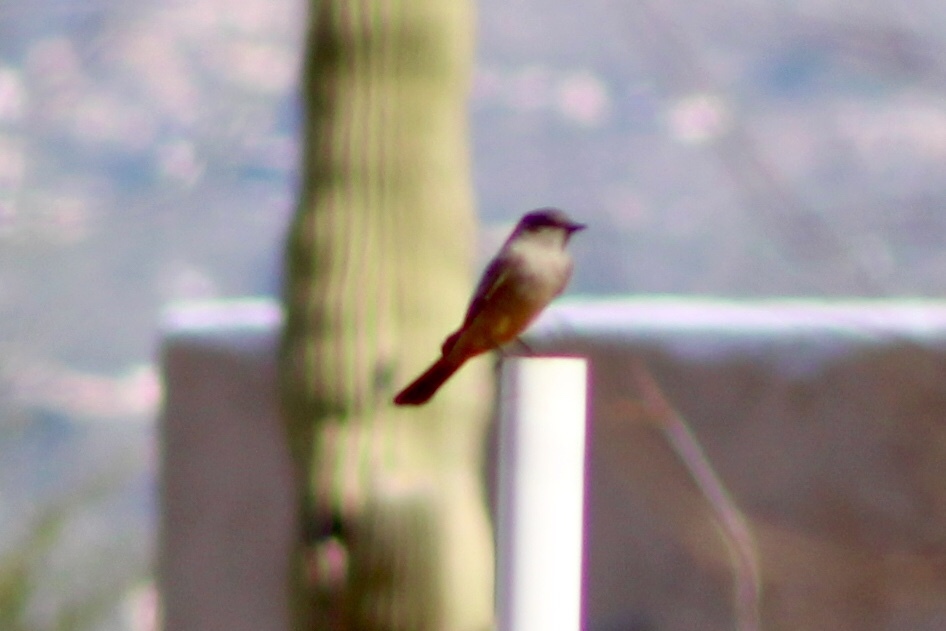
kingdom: Animalia
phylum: Chordata
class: Aves
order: Passeriformes
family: Tyrannidae
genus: Sayornis
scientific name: Sayornis saya
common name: Say's phoebe
